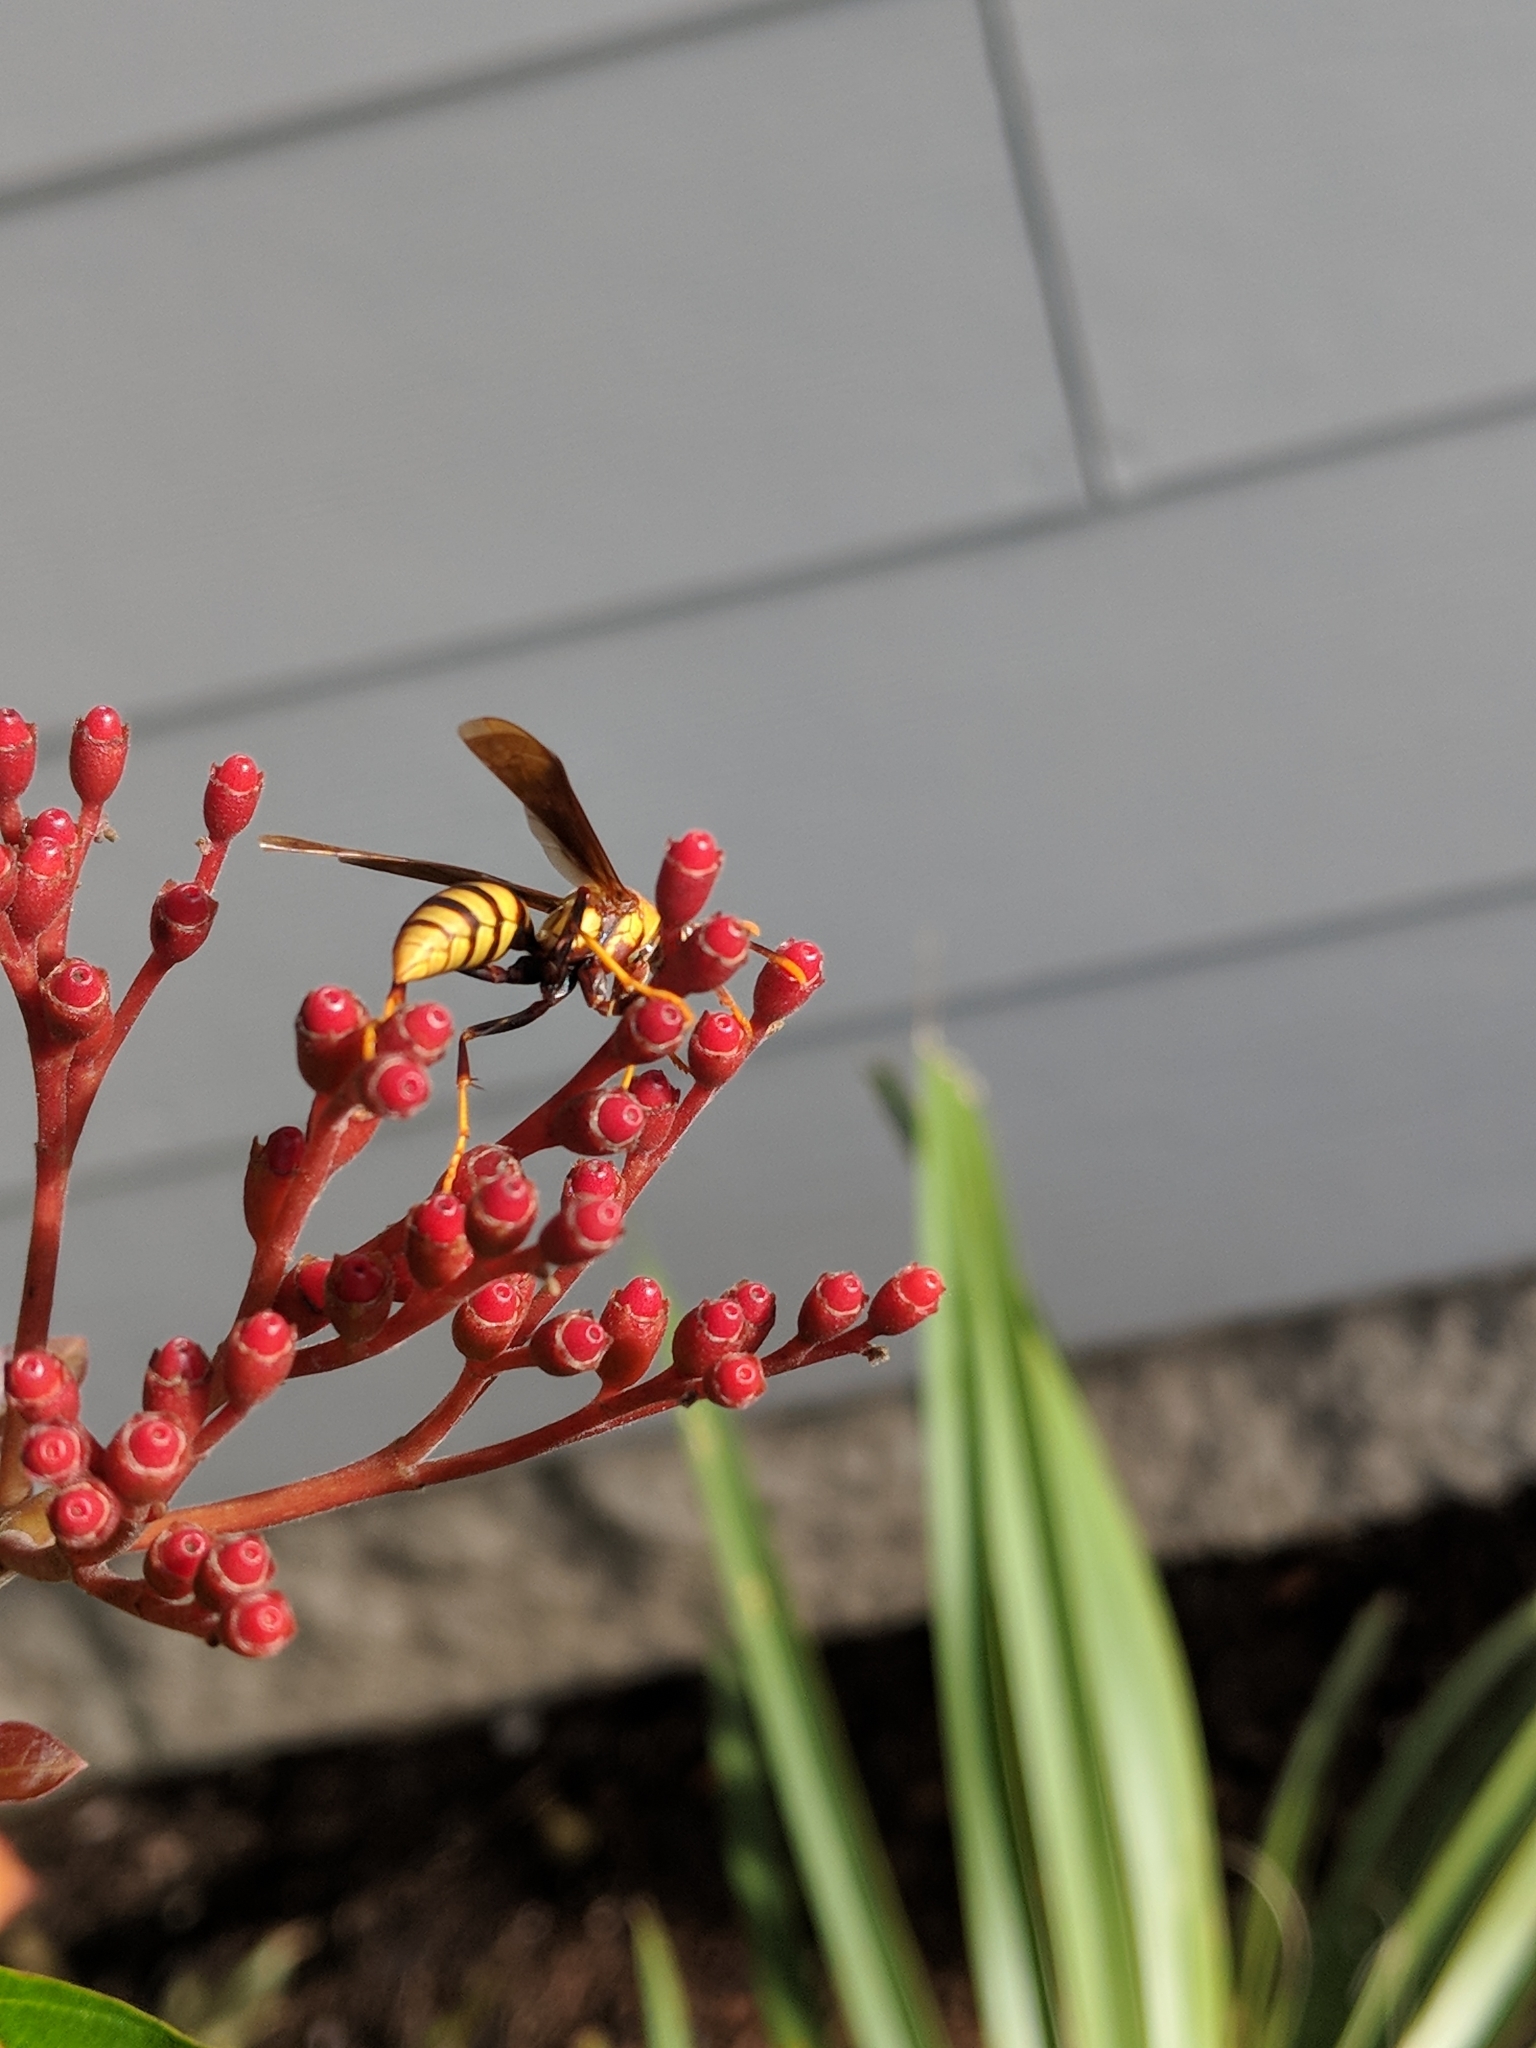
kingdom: Animalia
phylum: Arthropoda
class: Insecta
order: Hymenoptera
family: Eumenidae
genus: Polistes
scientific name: Polistes major
